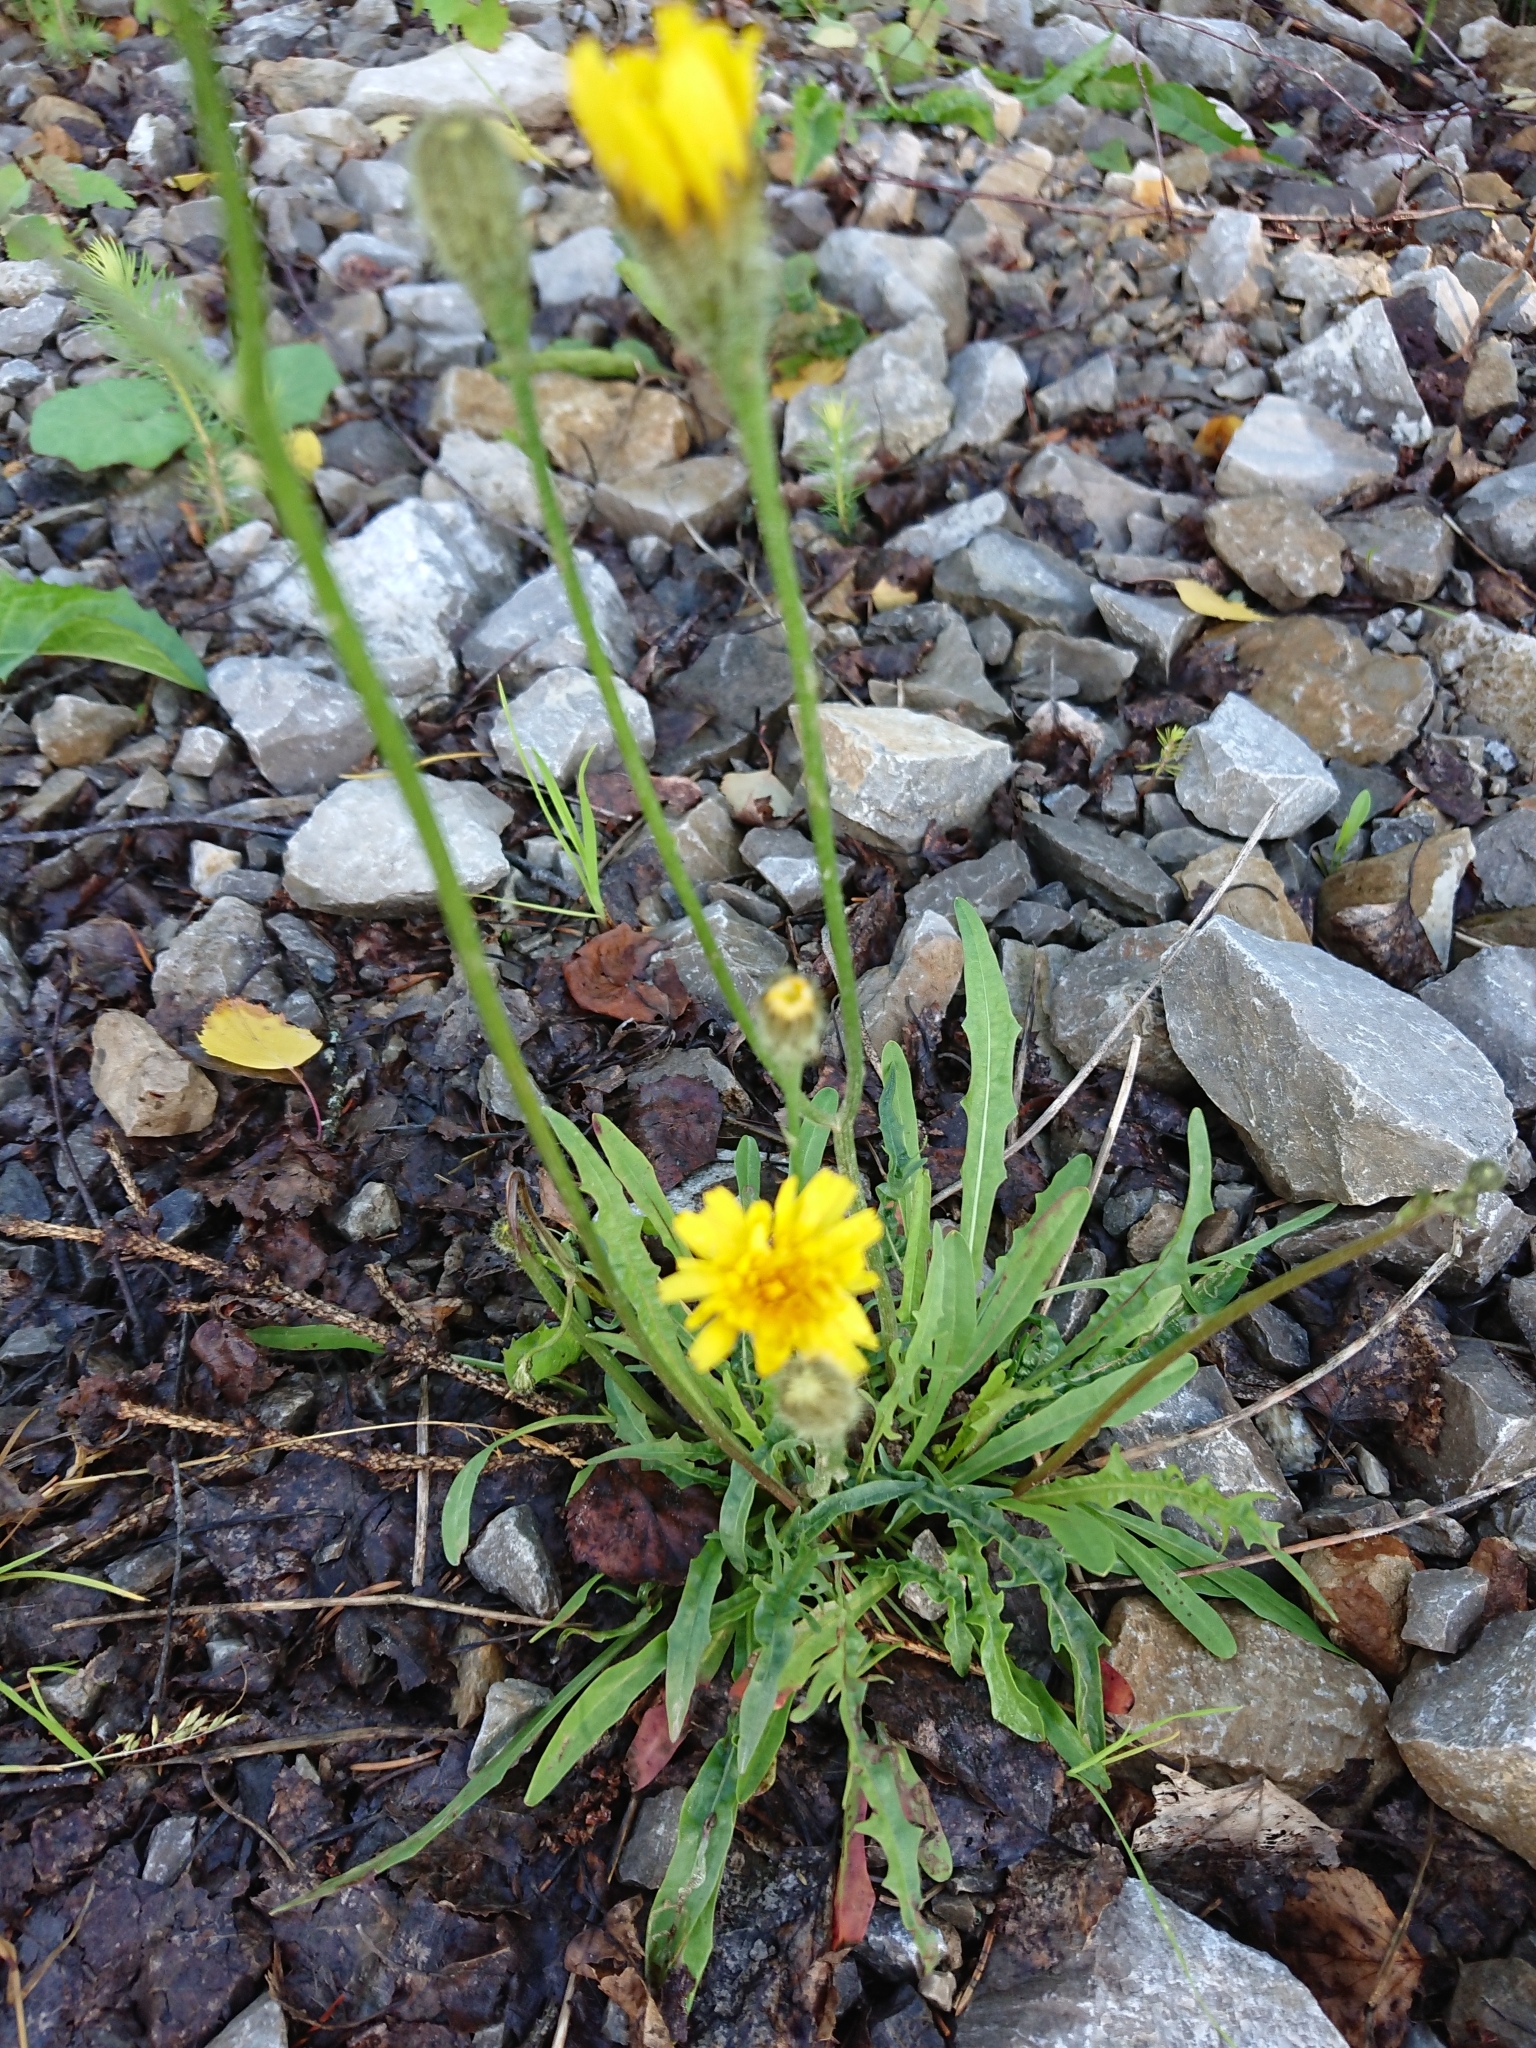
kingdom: Plantae
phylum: Tracheophyta
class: Magnoliopsida
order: Asterales
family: Asteraceae
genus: Scorzoneroides
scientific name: Scorzoneroides autumnalis
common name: Autumn hawkbit
